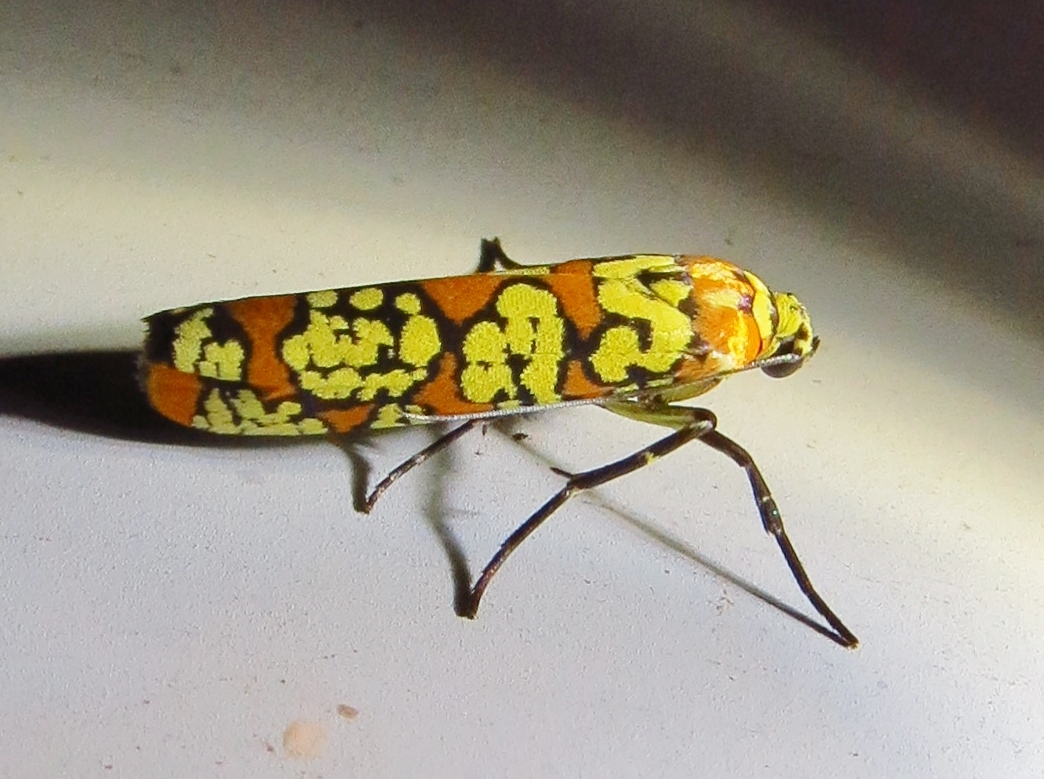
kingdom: Animalia
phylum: Arthropoda
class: Insecta
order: Lepidoptera
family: Attevidae
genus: Atteva
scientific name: Atteva punctella
